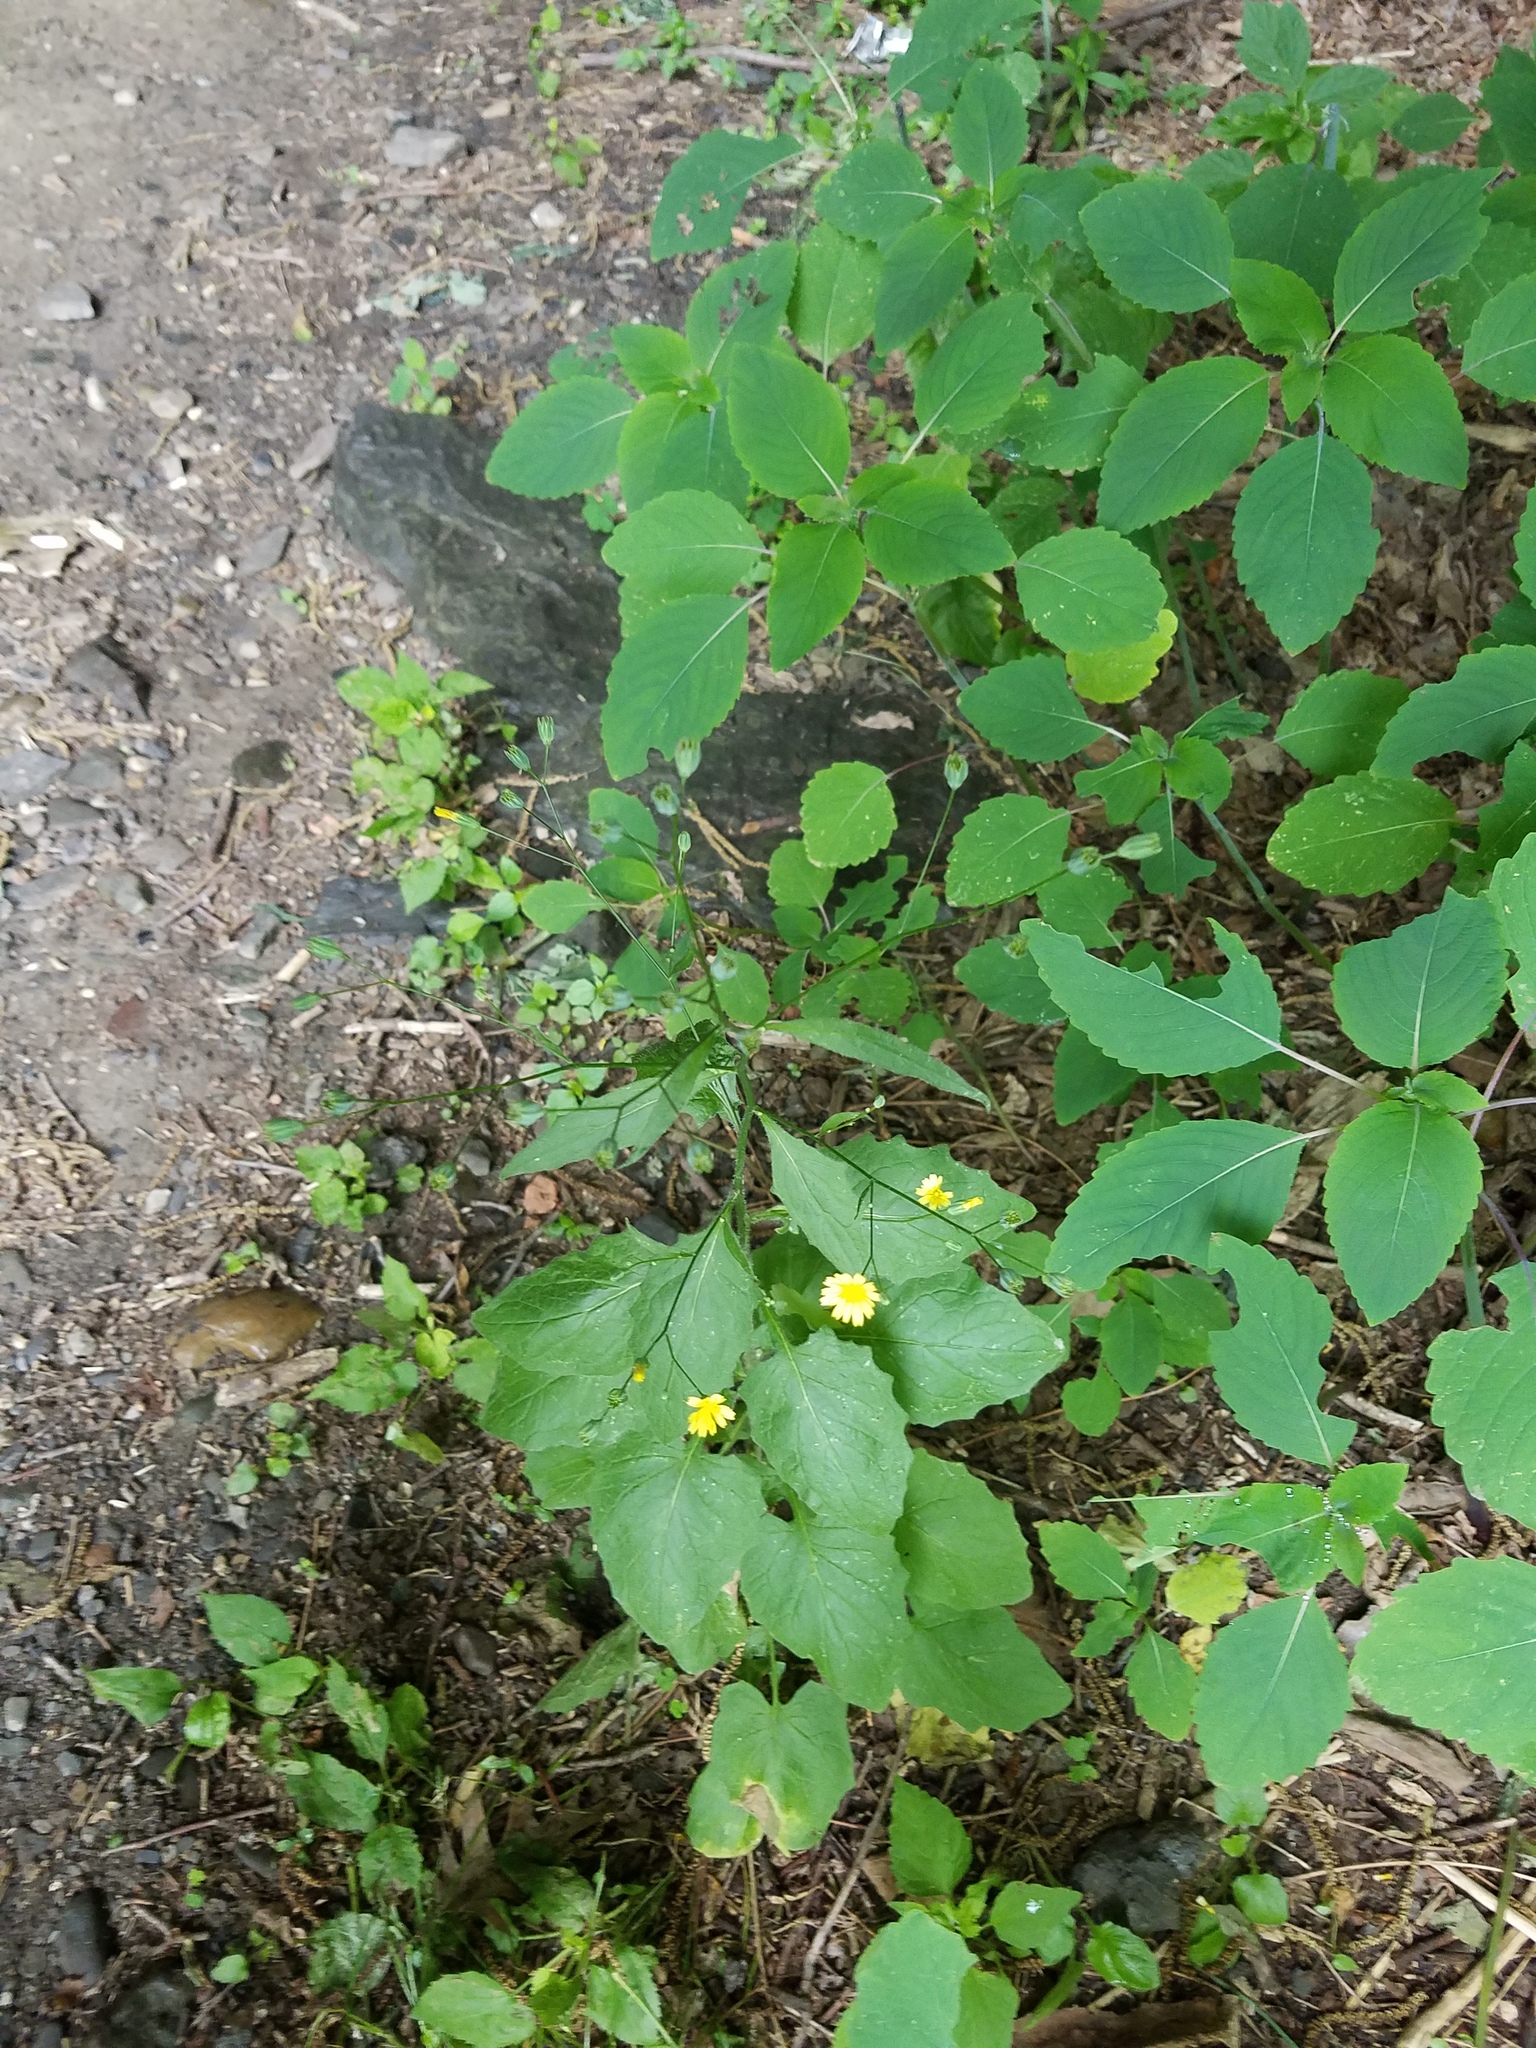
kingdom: Plantae
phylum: Tracheophyta
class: Magnoliopsida
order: Asterales
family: Asteraceae
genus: Lapsana
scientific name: Lapsana communis
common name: Nipplewort
